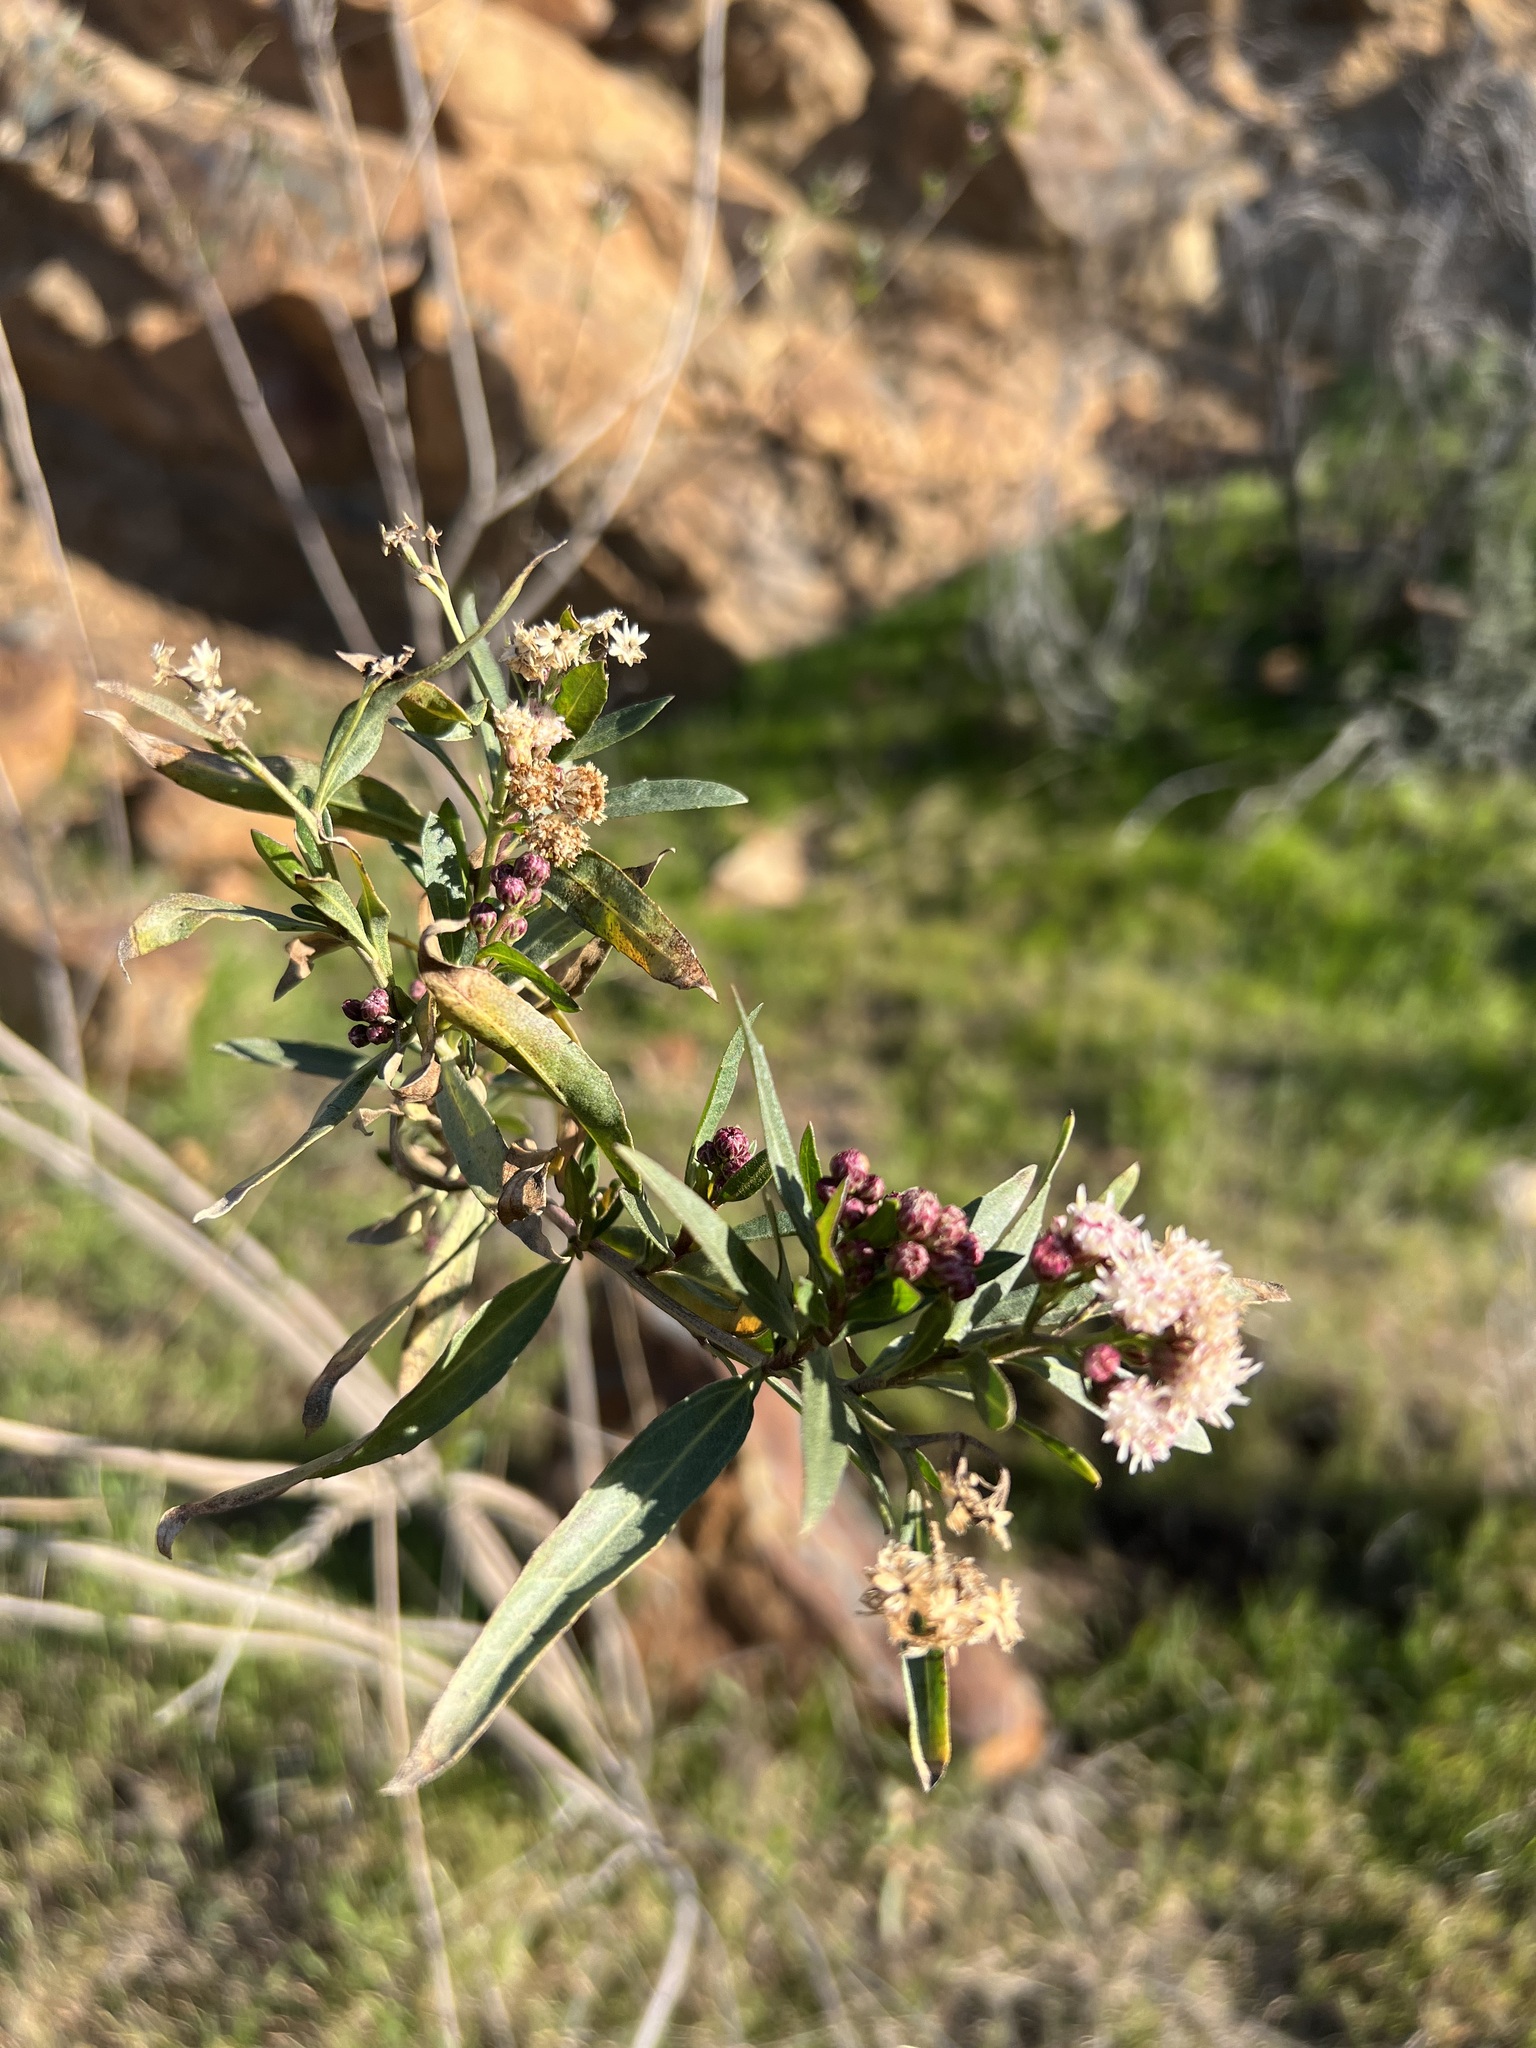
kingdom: Plantae
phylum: Tracheophyta
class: Magnoliopsida
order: Asterales
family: Asteraceae
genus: Baccharis
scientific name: Baccharis salicifolia
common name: Sticky baccharis
